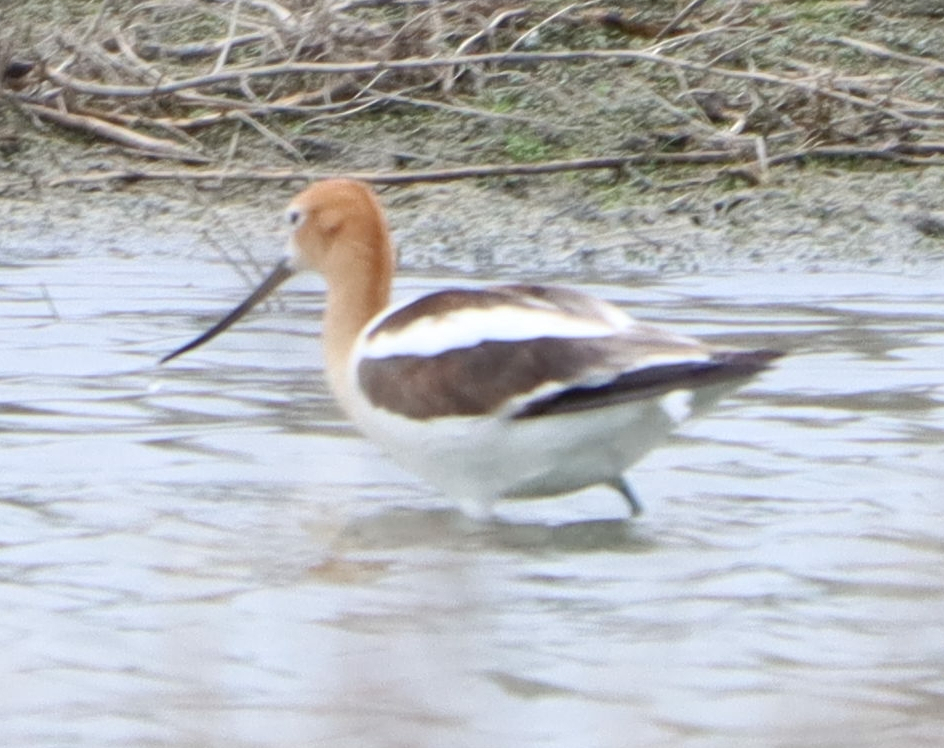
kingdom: Animalia
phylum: Chordata
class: Aves
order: Charadriiformes
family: Recurvirostridae
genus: Recurvirostra
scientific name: Recurvirostra americana
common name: American avocet
